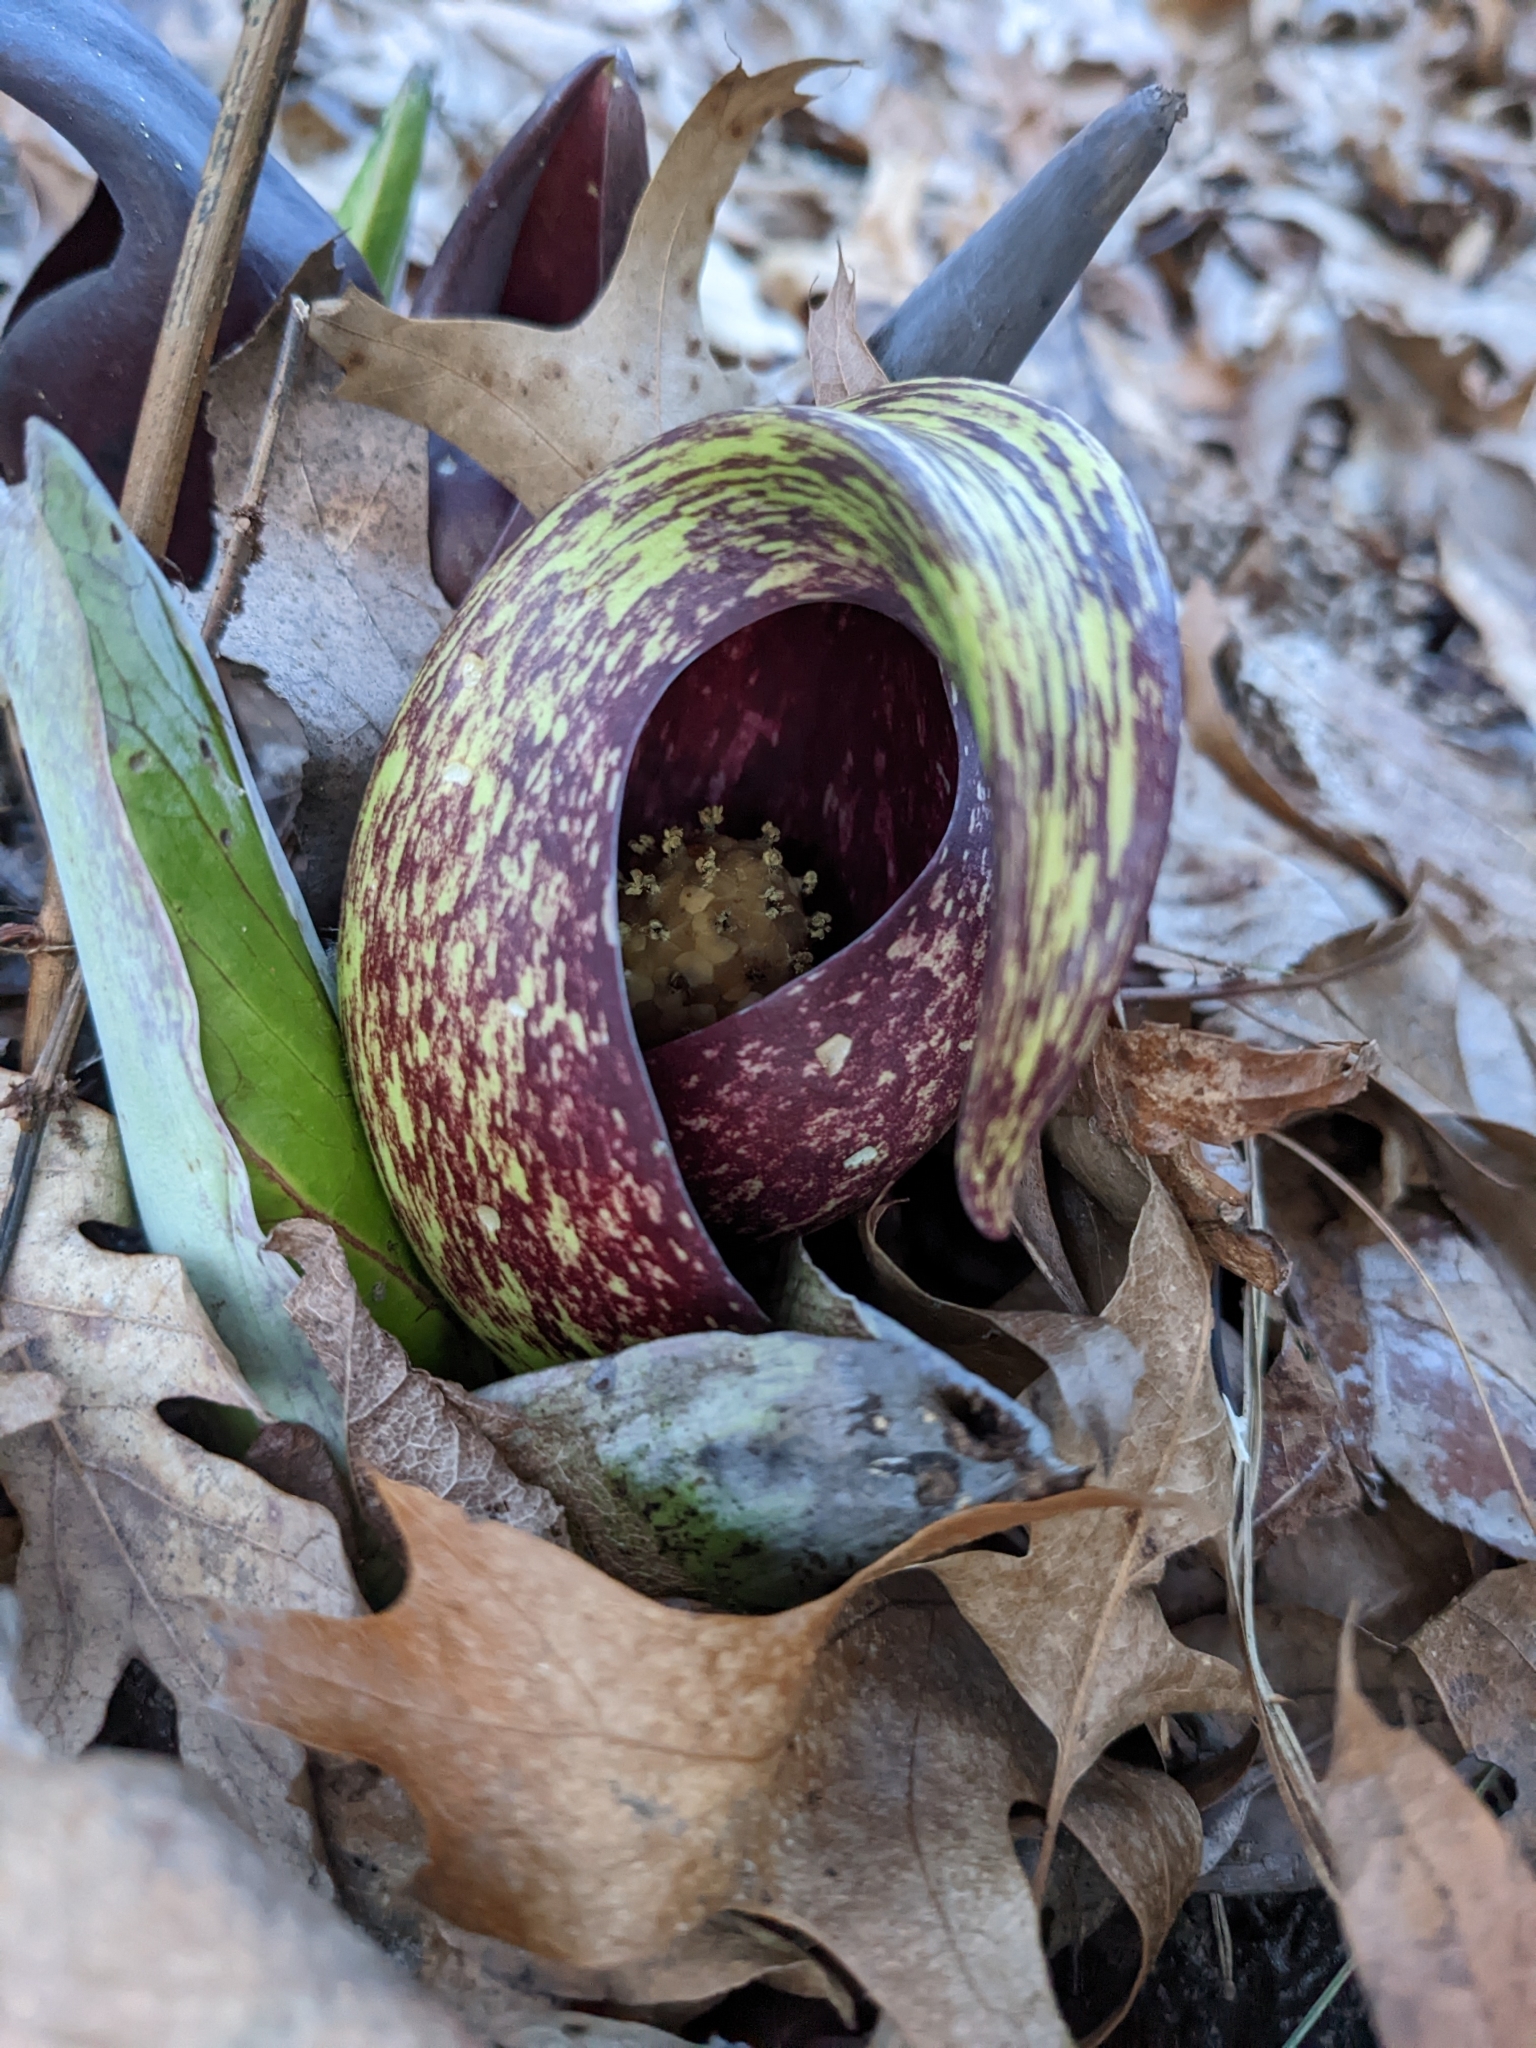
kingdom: Plantae
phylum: Tracheophyta
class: Liliopsida
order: Alismatales
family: Araceae
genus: Symplocarpus
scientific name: Symplocarpus foetidus
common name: Eastern skunk cabbage
